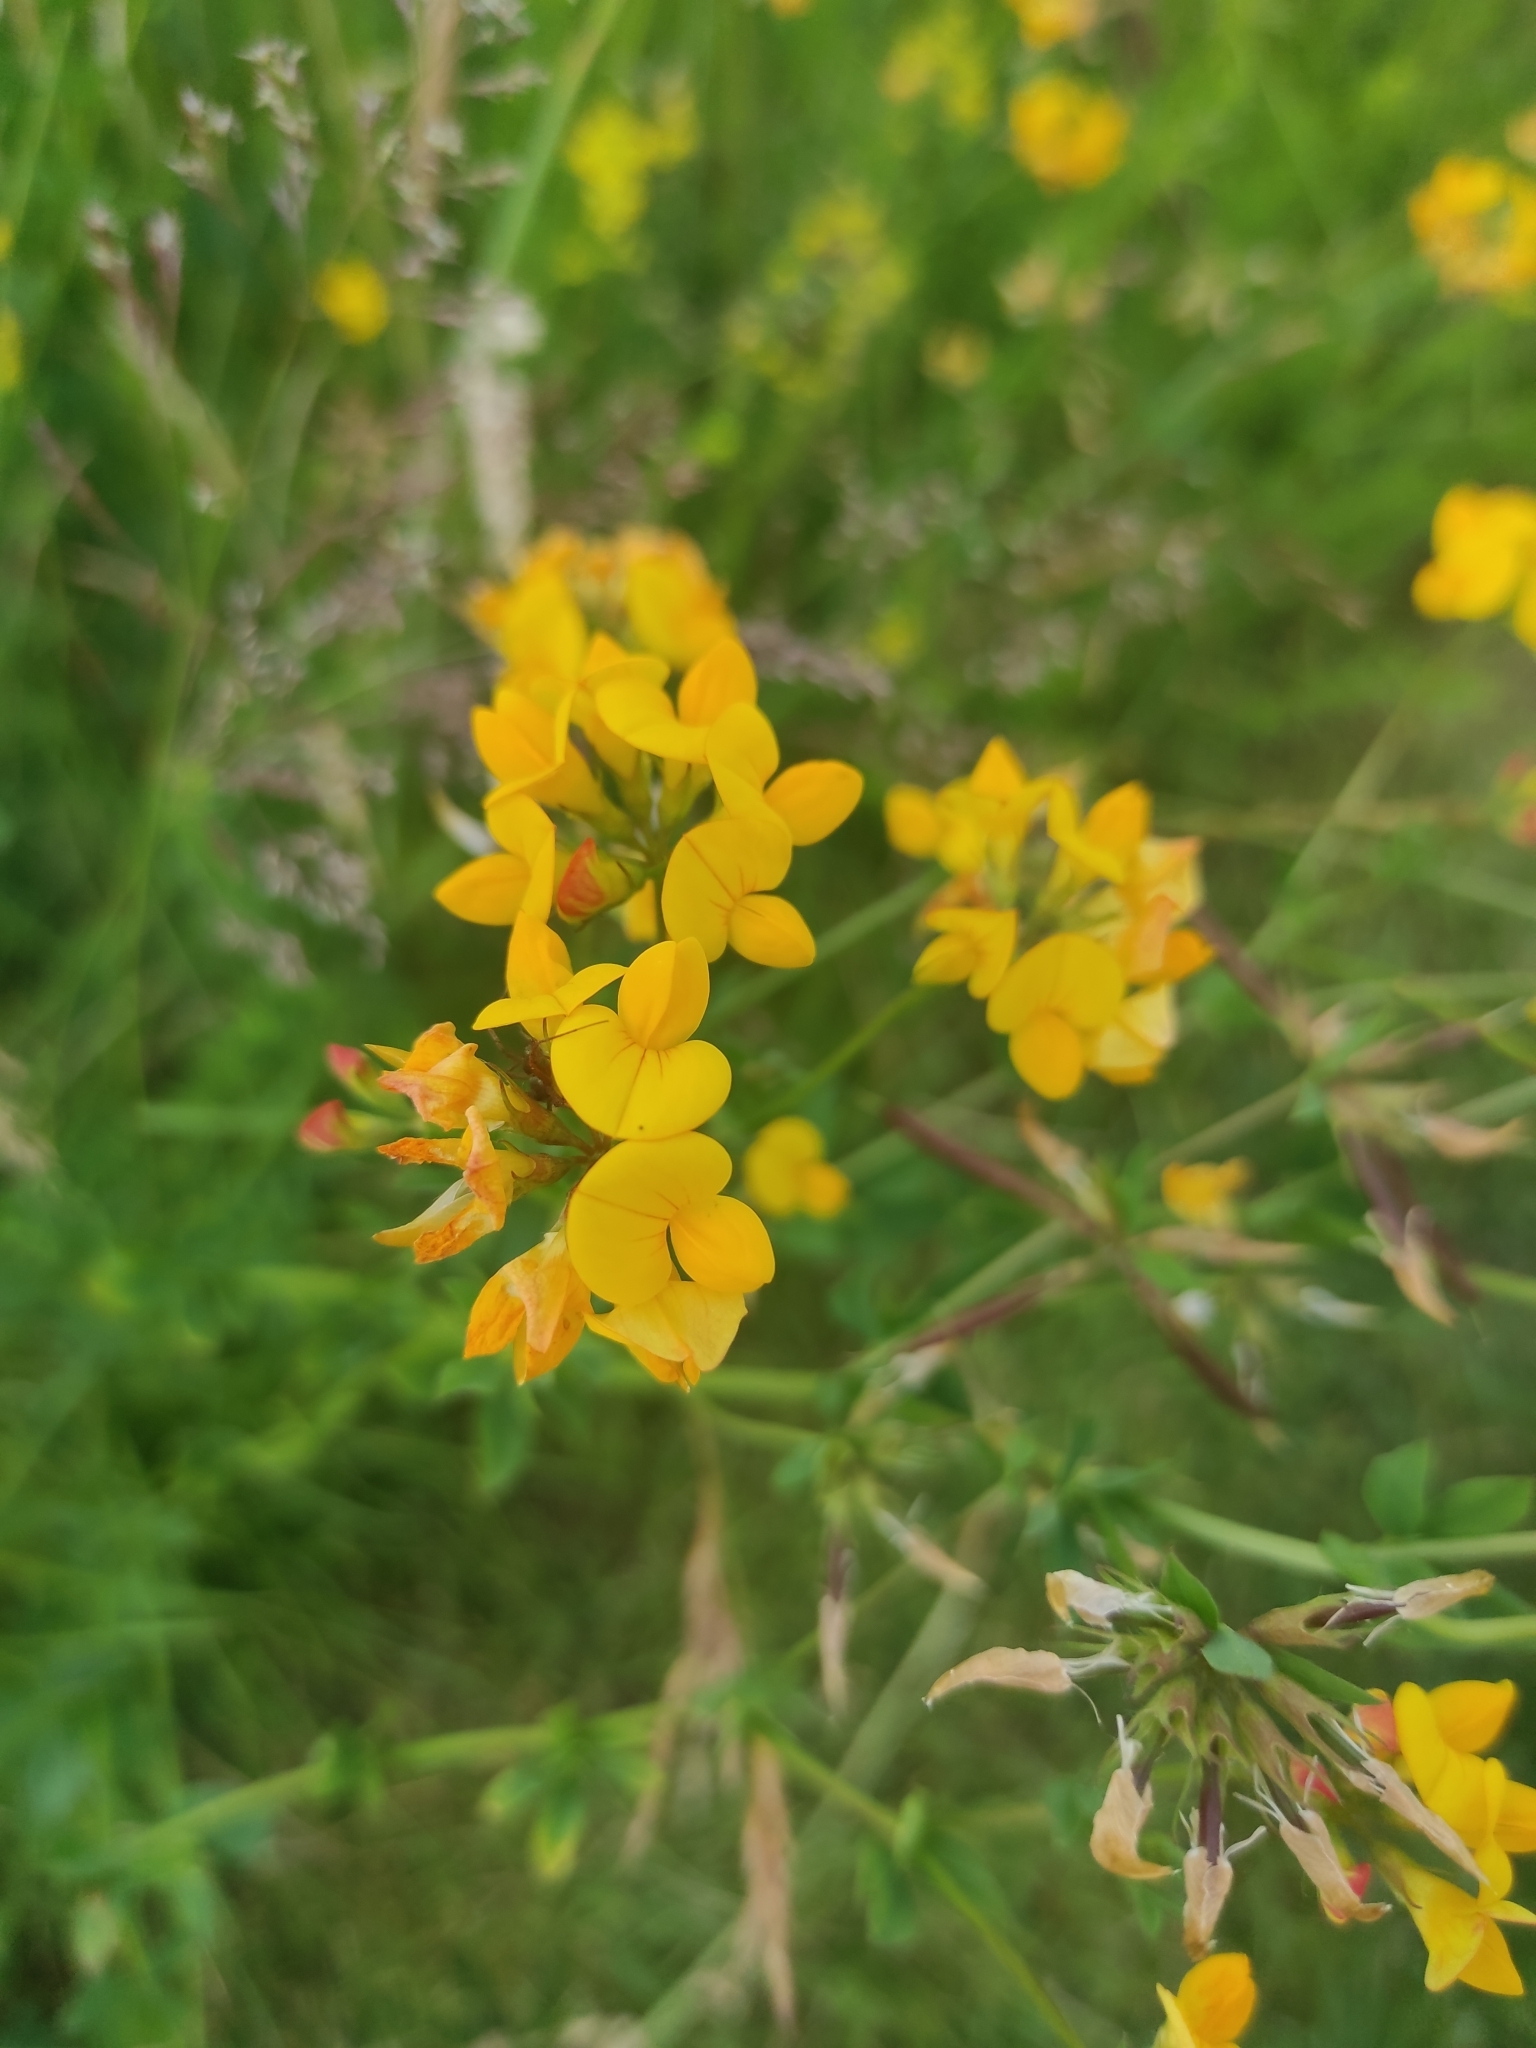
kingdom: Plantae
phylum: Tracheophyta
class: Magnoliopsida
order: Fabales
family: Fabaceae
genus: Lotus
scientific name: Lotus corniculatus
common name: Common bird's-foot-trefoil
